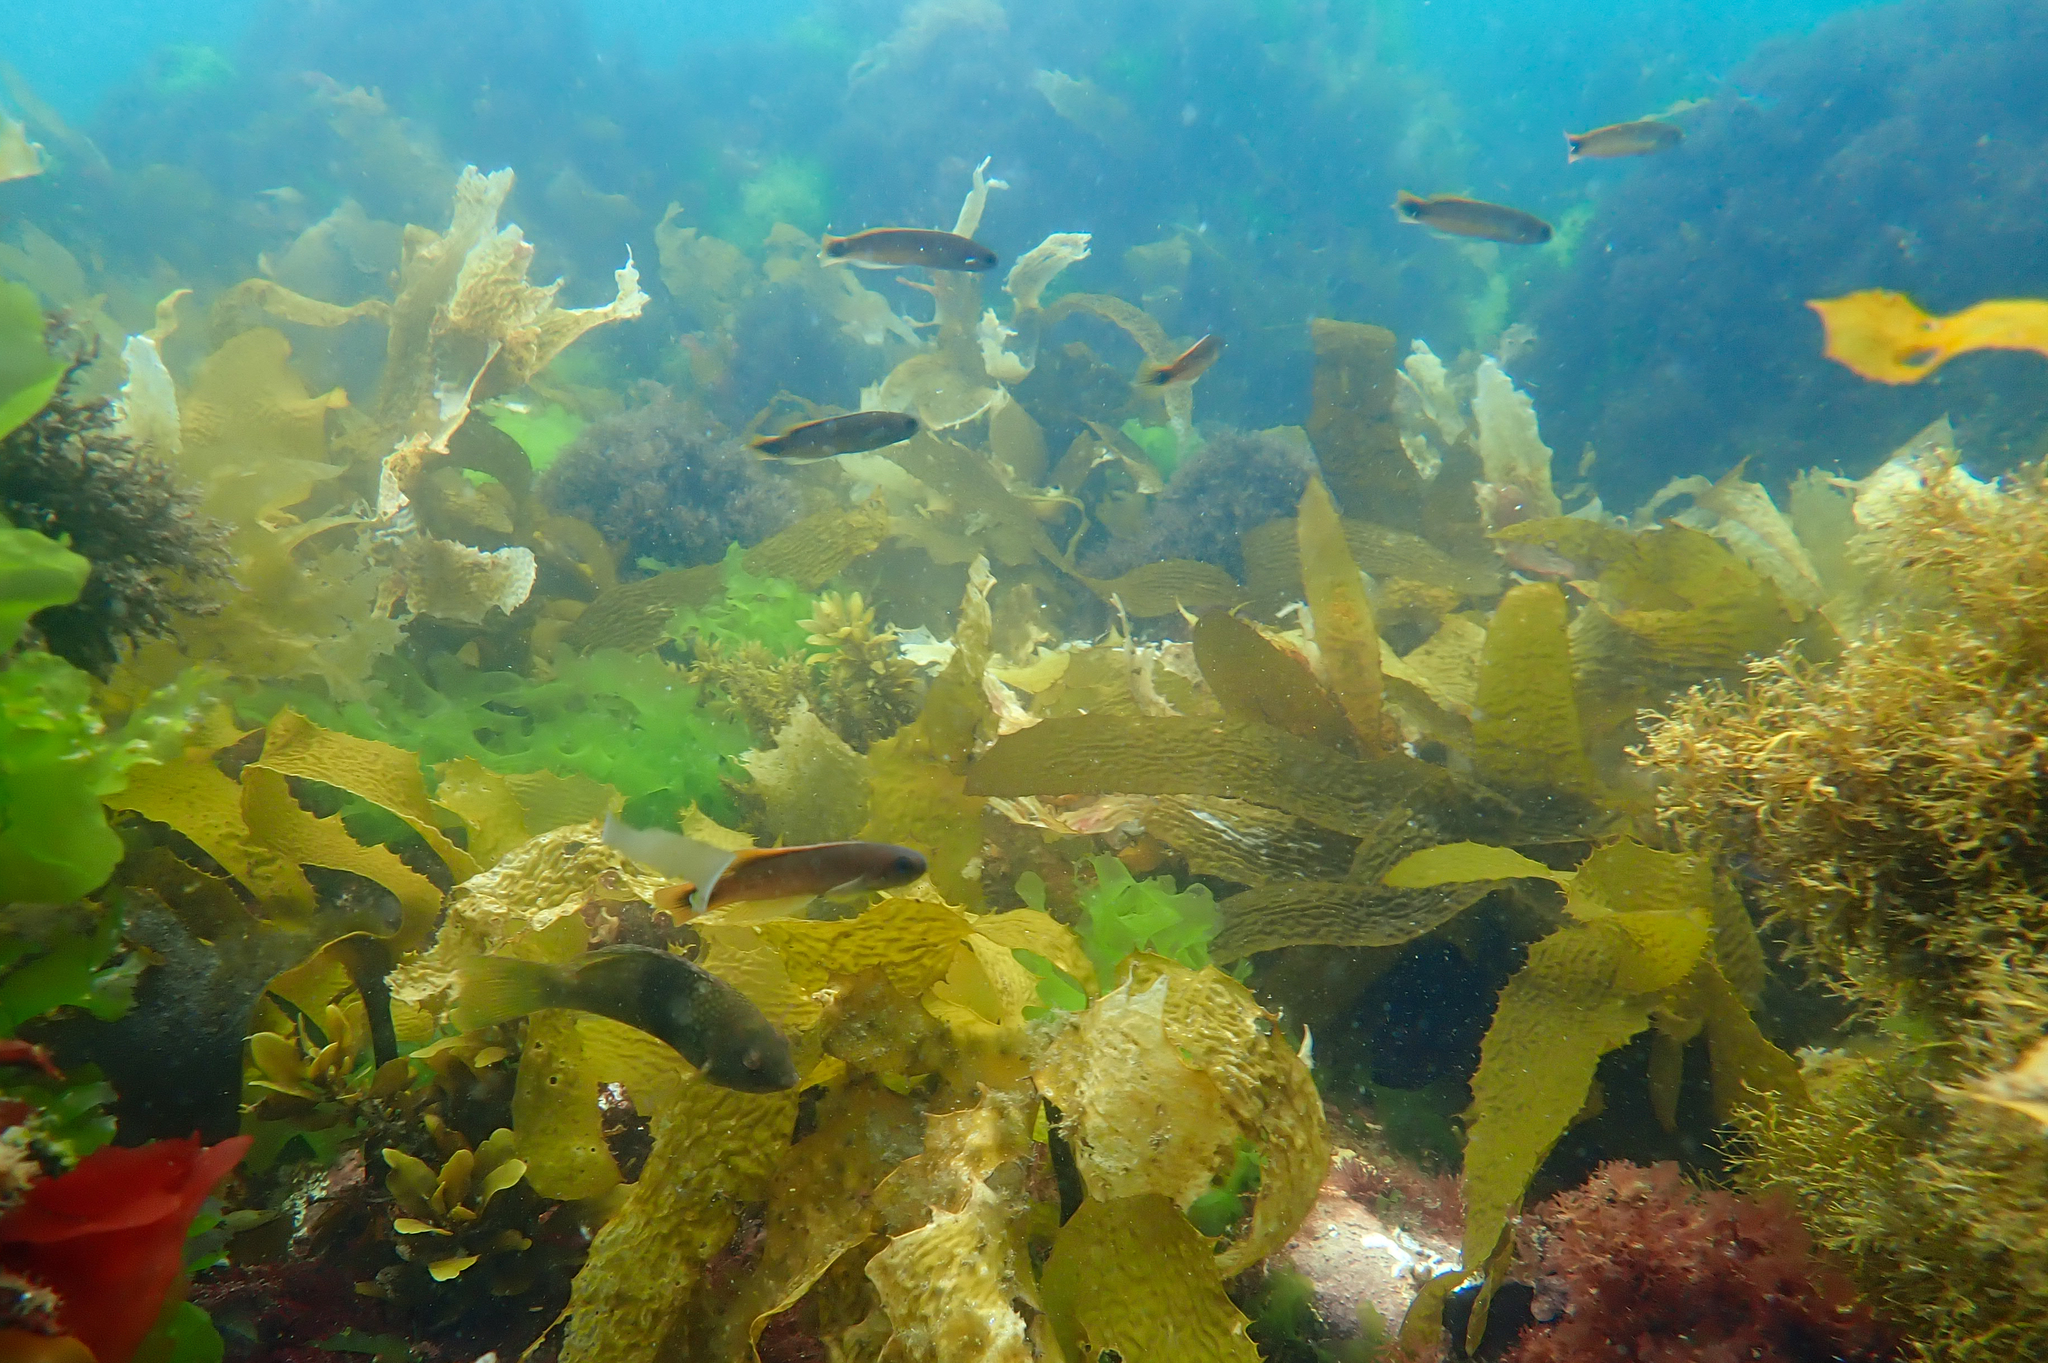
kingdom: Animalia
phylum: Chordata
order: Perciformes
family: Plesiopidae
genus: Trachinops
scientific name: Trachinops caudimaculatus
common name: Blotched-tailed trachinops
